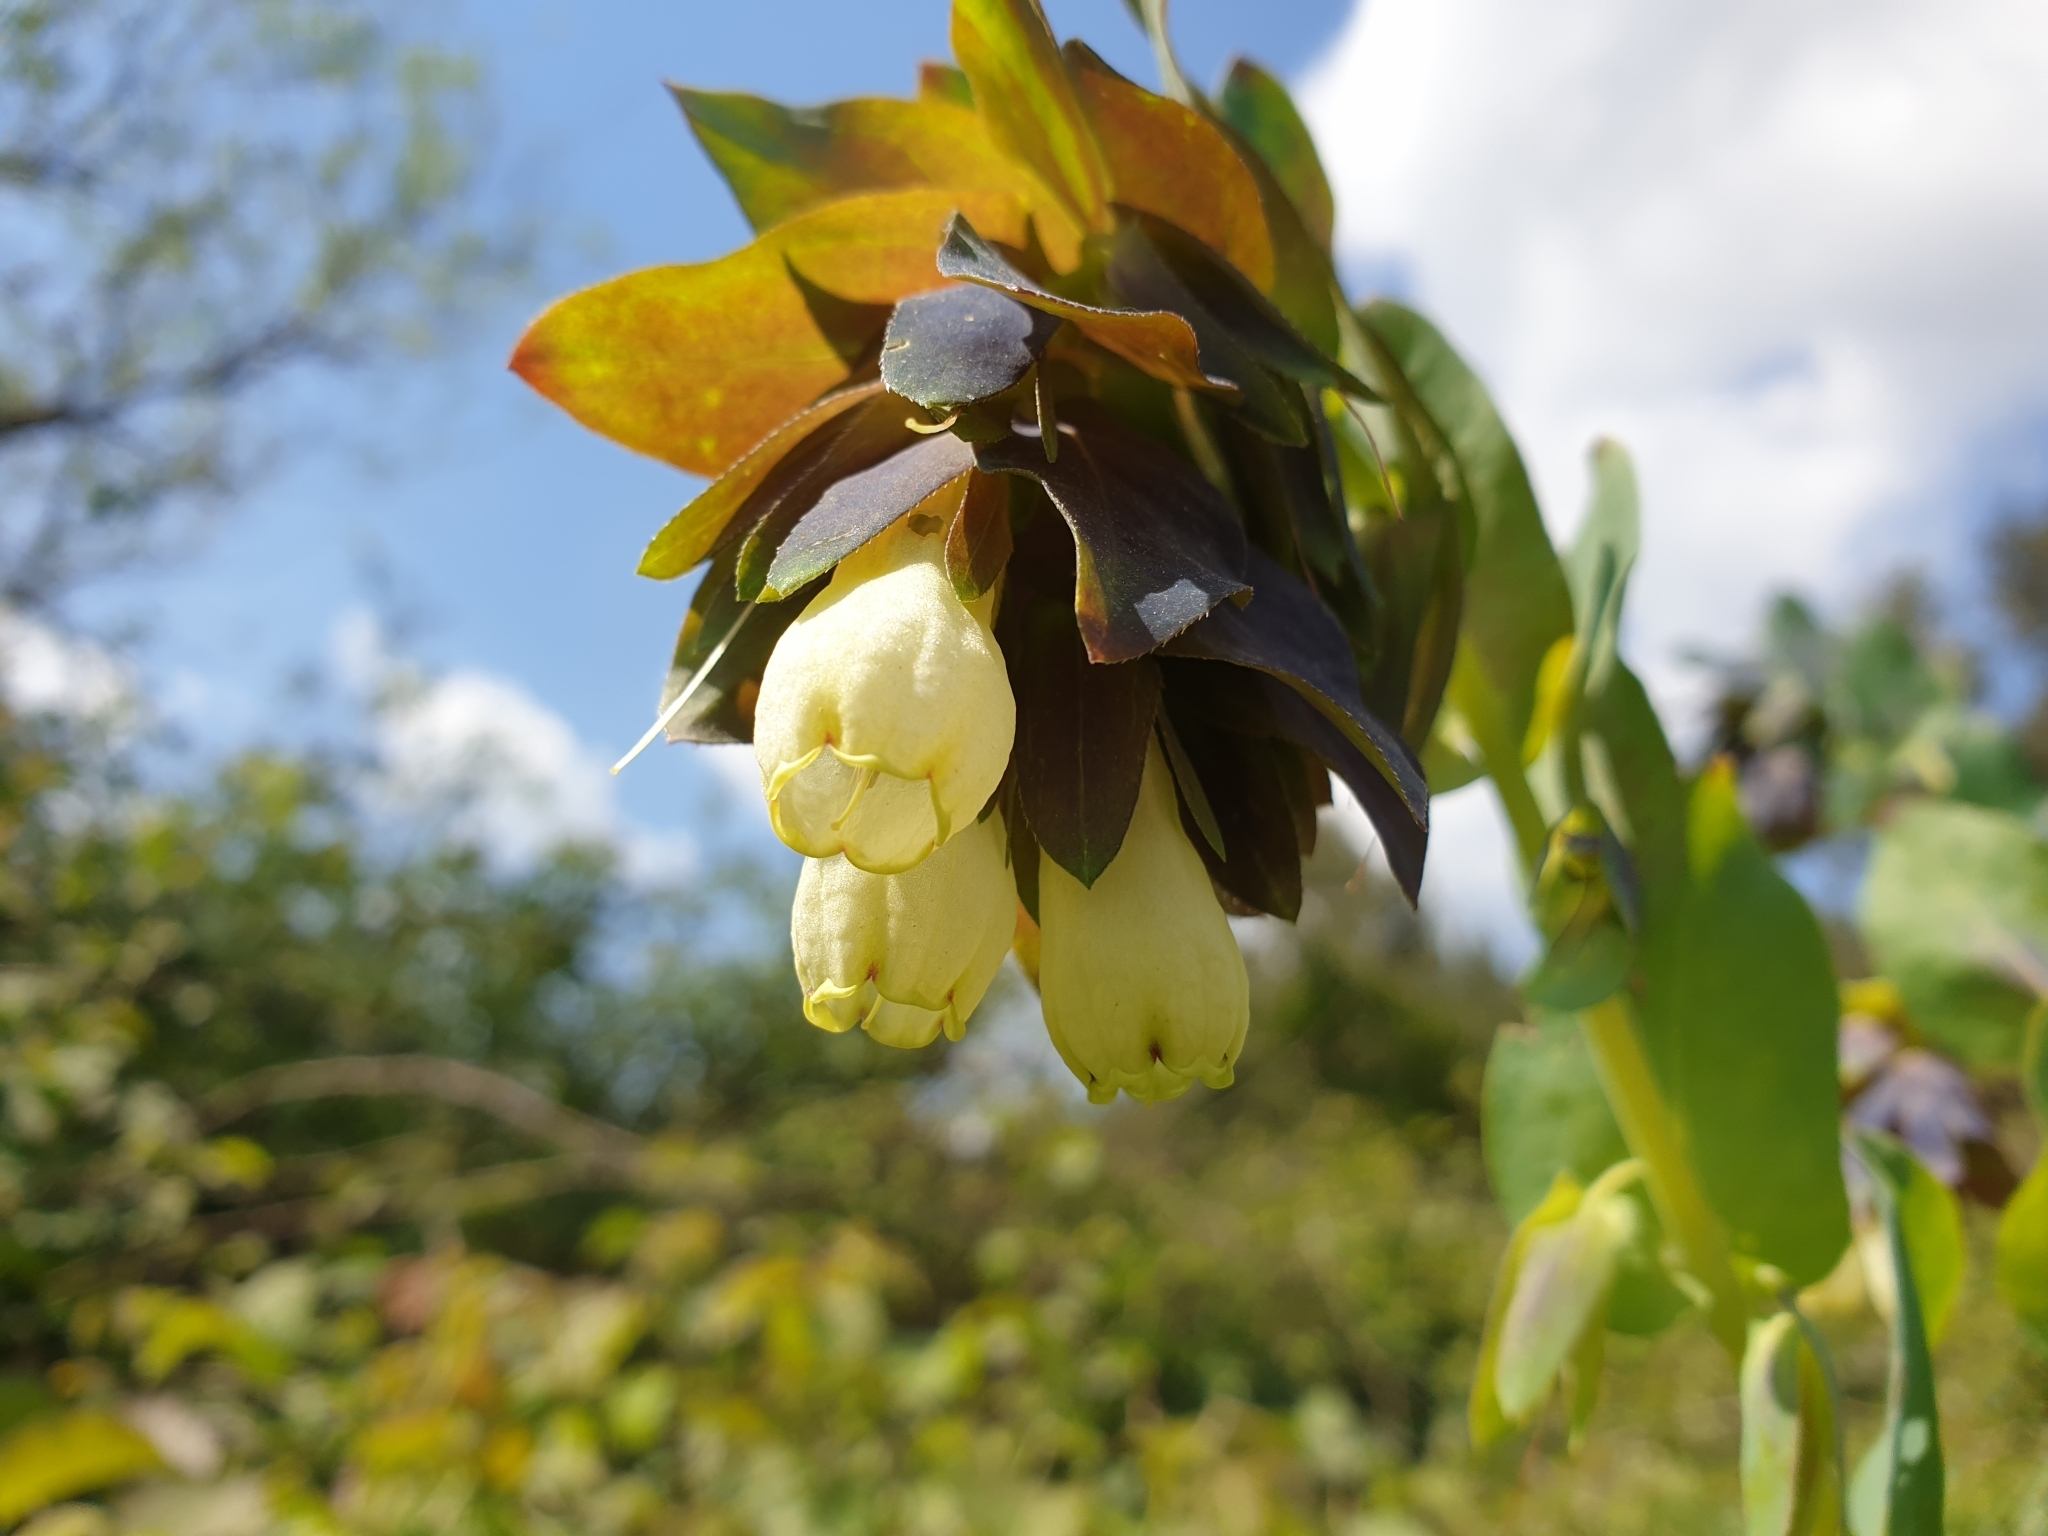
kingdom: Plantae
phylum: Tracheophyta
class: Magnoliopsida
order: Boraginales
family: Boraginaceae
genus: Cerinthe
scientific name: Cerinthe palaestina
